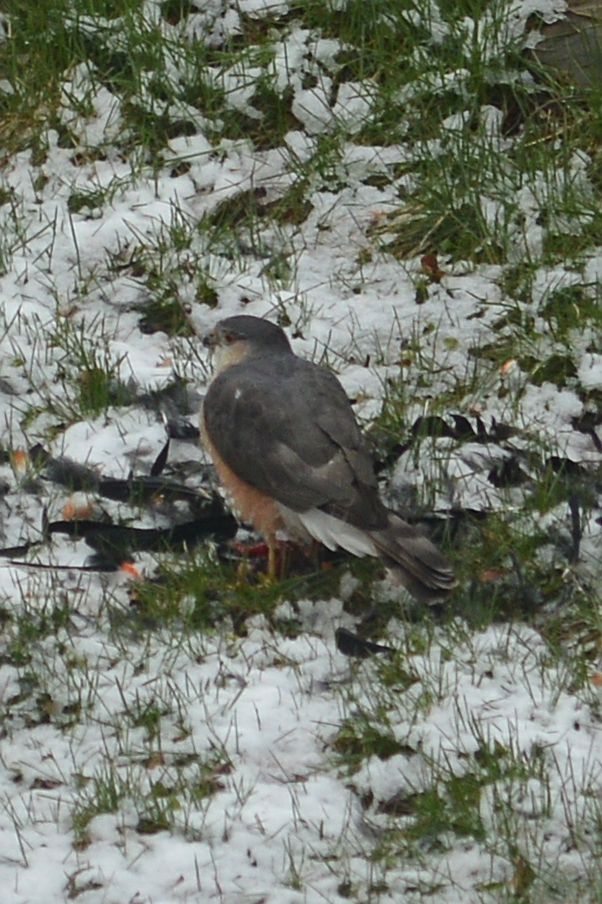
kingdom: Animalia
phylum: Chordata
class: Aves
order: Accipitriformes
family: Accipitridae
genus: Accipiter
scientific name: Accipiter striatus
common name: Sharp-shinned hawk
